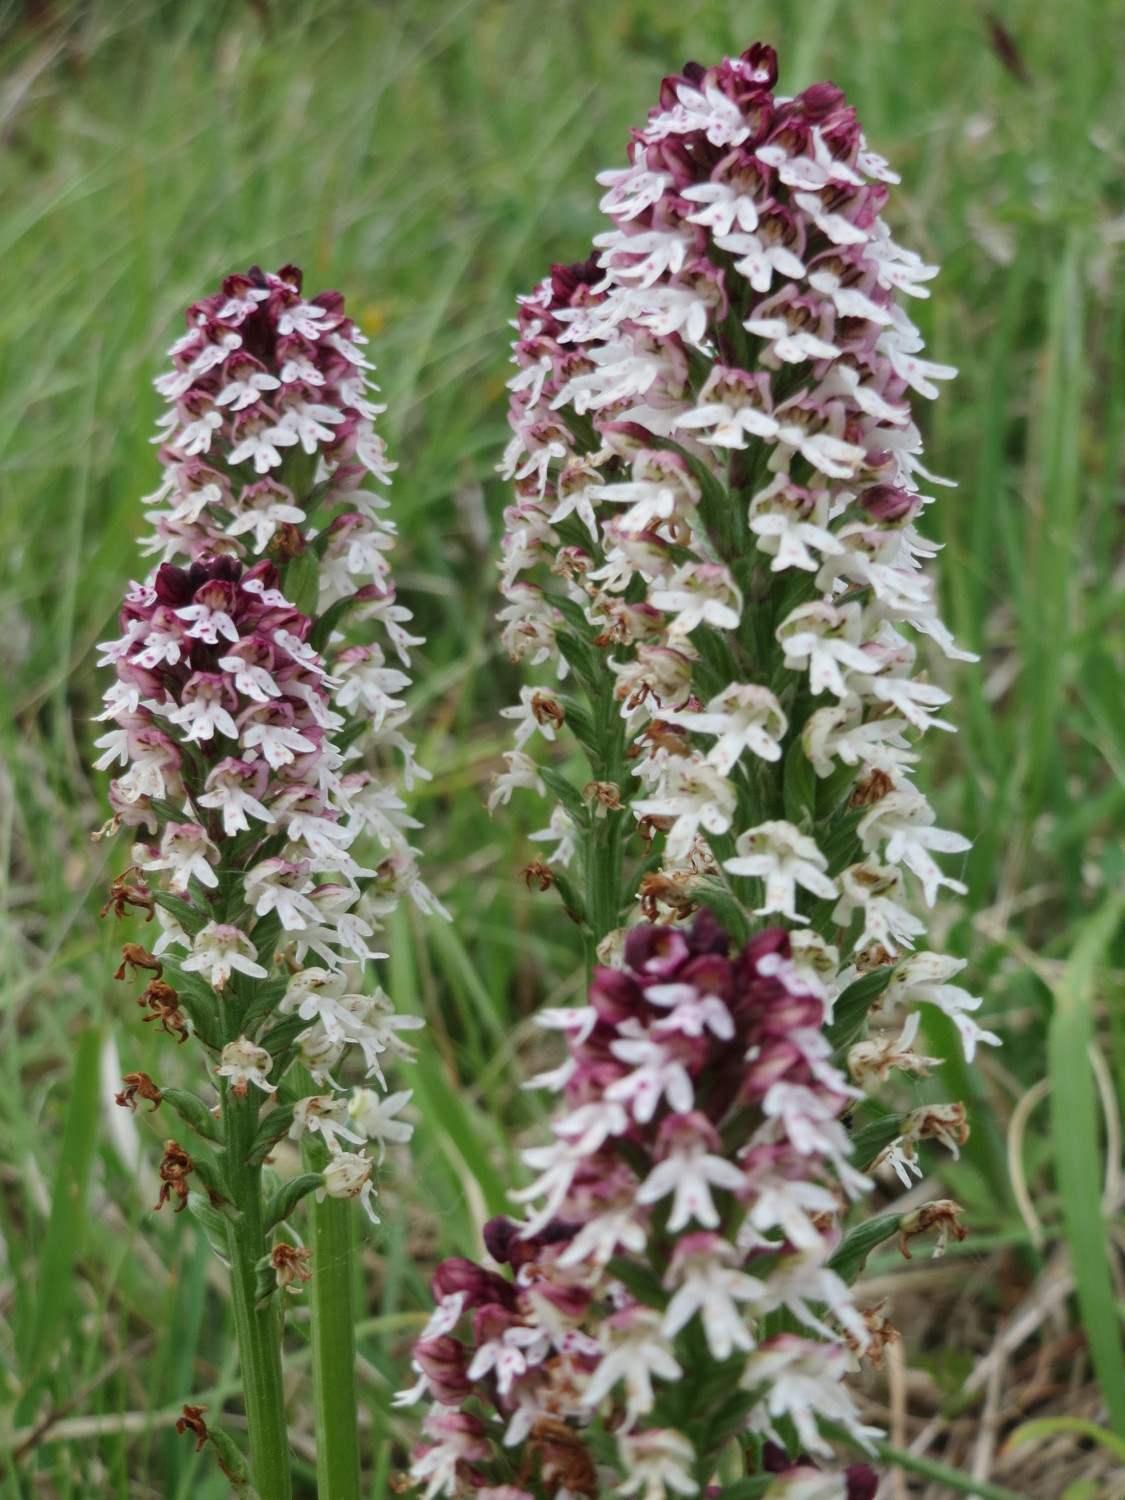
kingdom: Plantae
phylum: Tracheophyta
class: Liliopsida
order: Asparagales
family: Orchidaceae
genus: Neotinea
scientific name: Neotinea ustulata
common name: Burnt orchid
